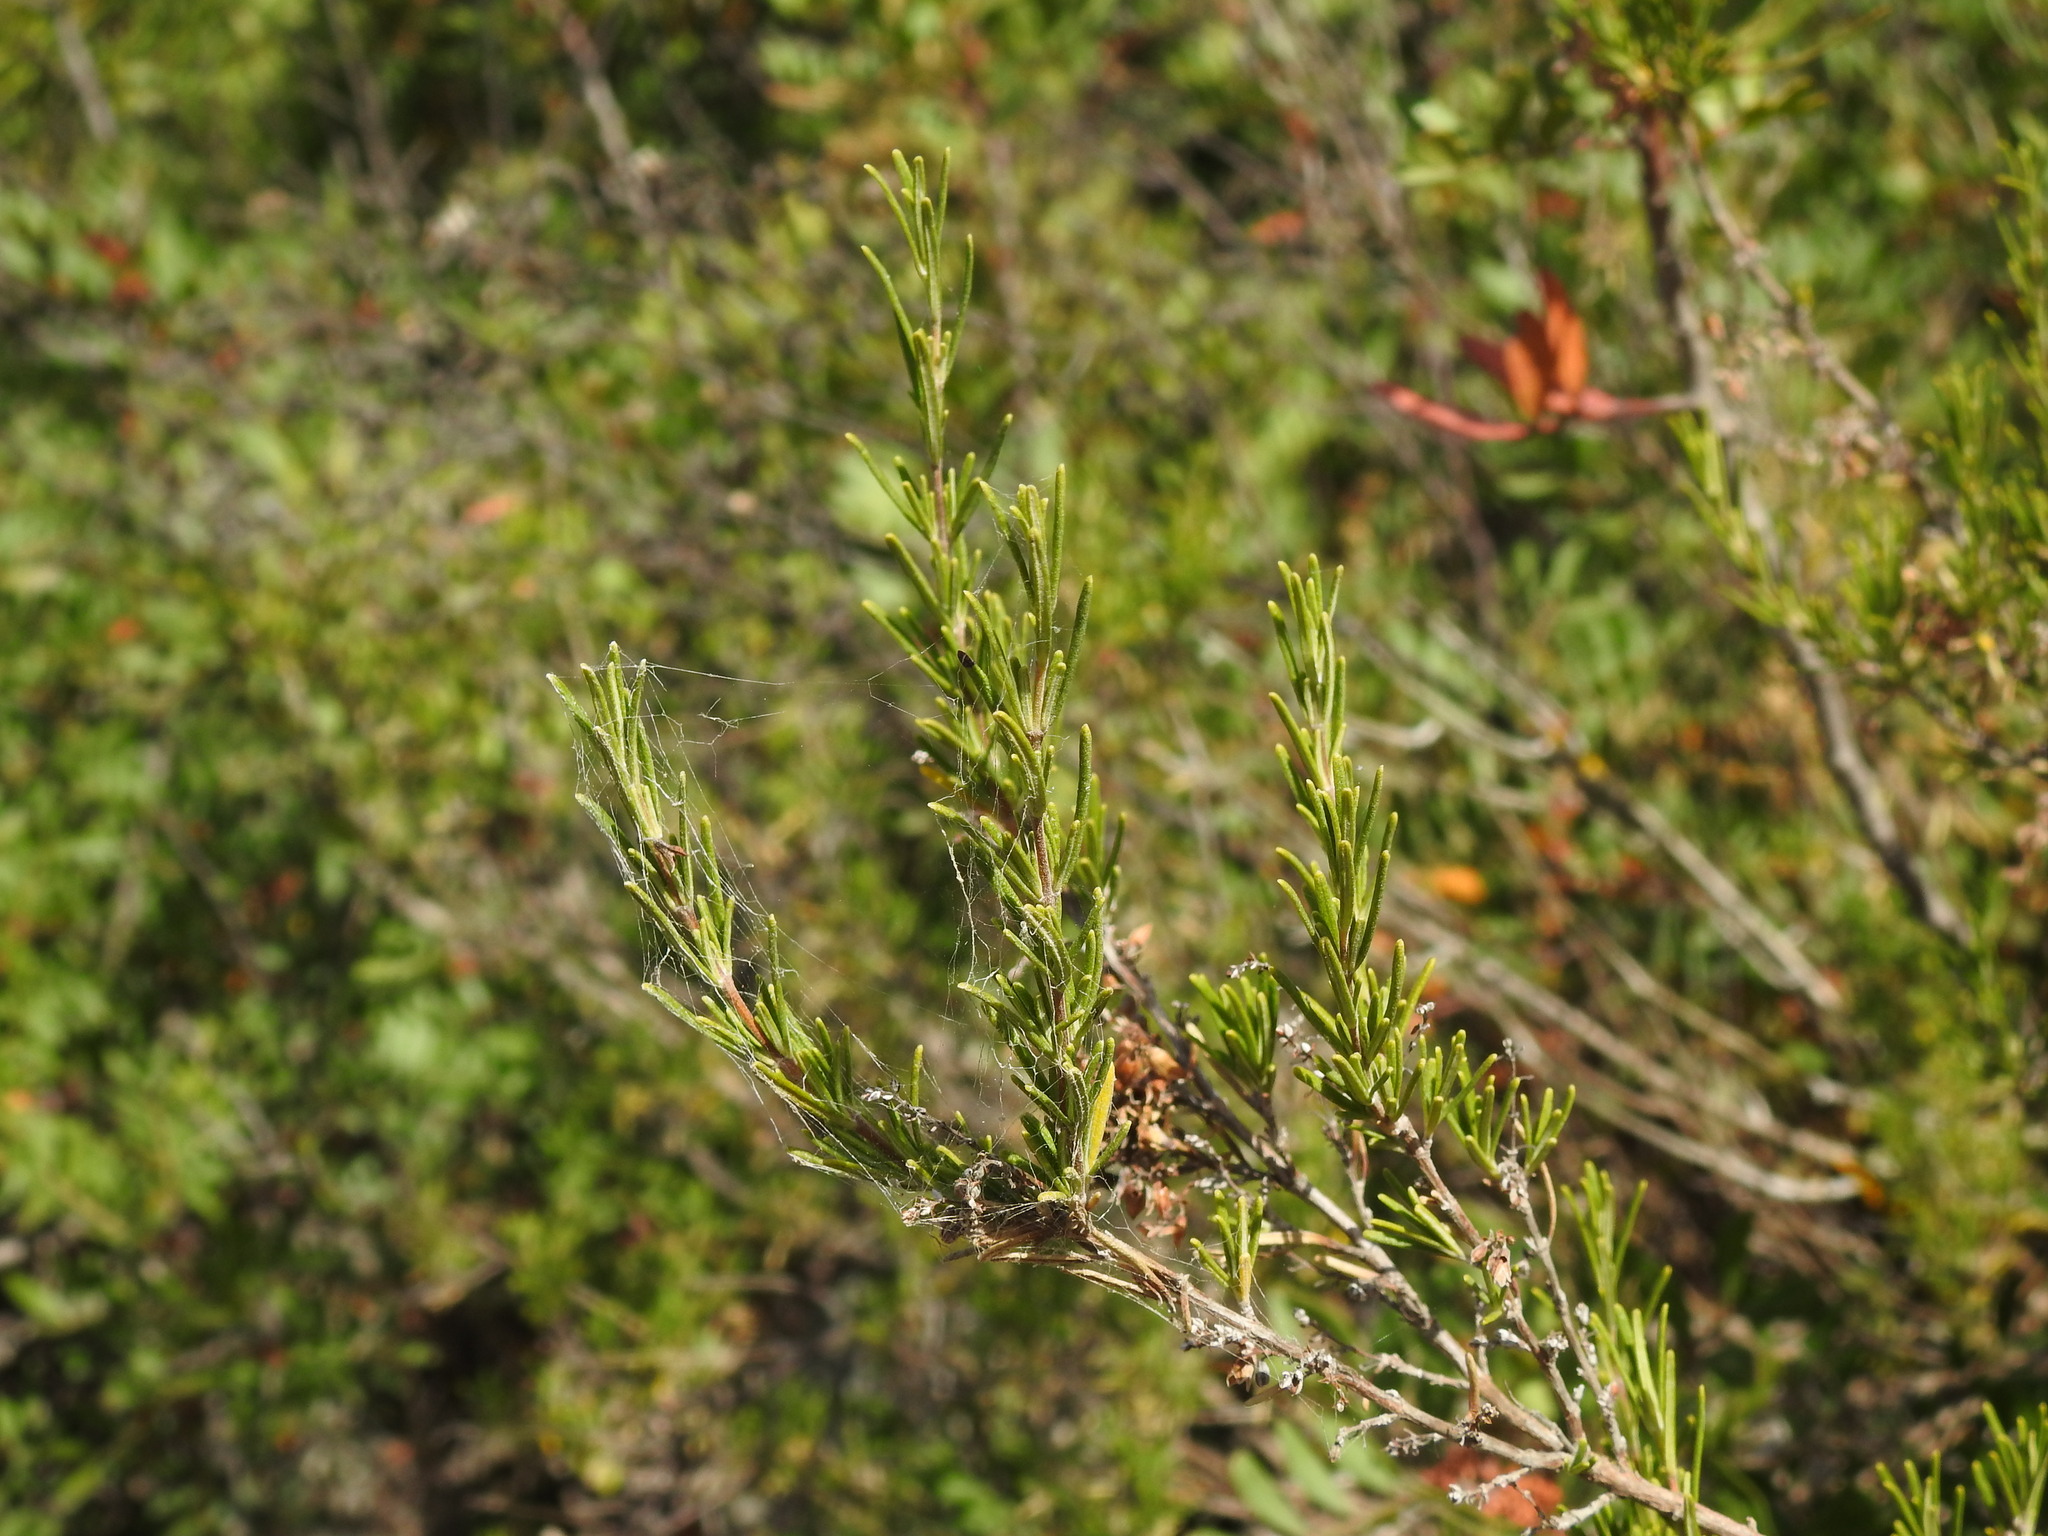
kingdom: Plantae
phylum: Tracheophyta
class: Magnoliopsida
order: Lamiales
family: Lamiaceae
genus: Salvia
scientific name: Salvia rosmarinus
